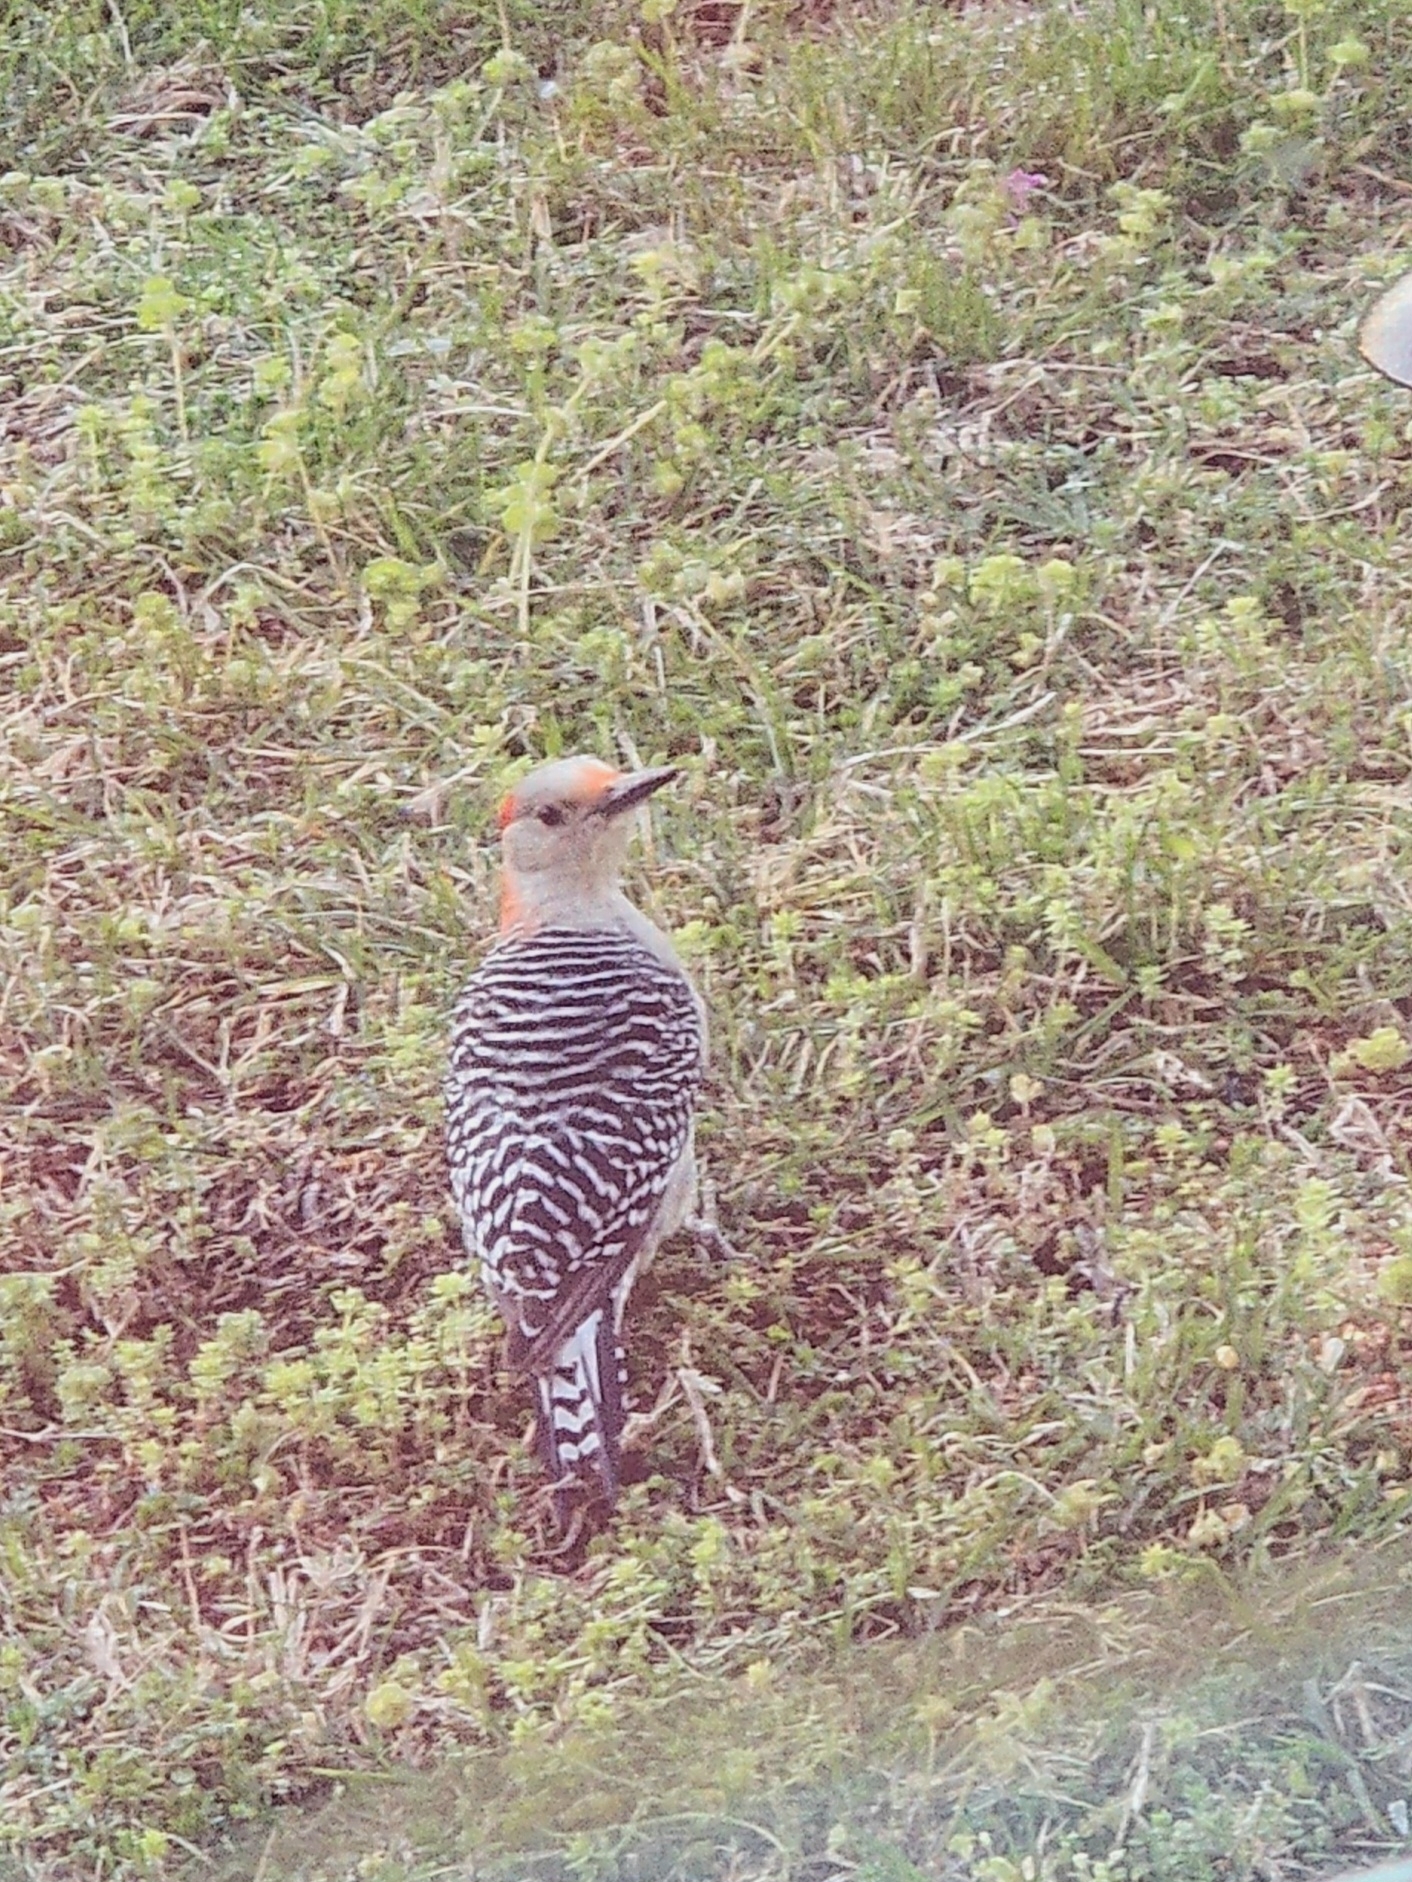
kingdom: Animalia
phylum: Chordata
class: Aves
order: Piciformes
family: Picidae
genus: Melanerpes
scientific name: Melanerpes carolinus
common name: Red-bellied woodpecker
